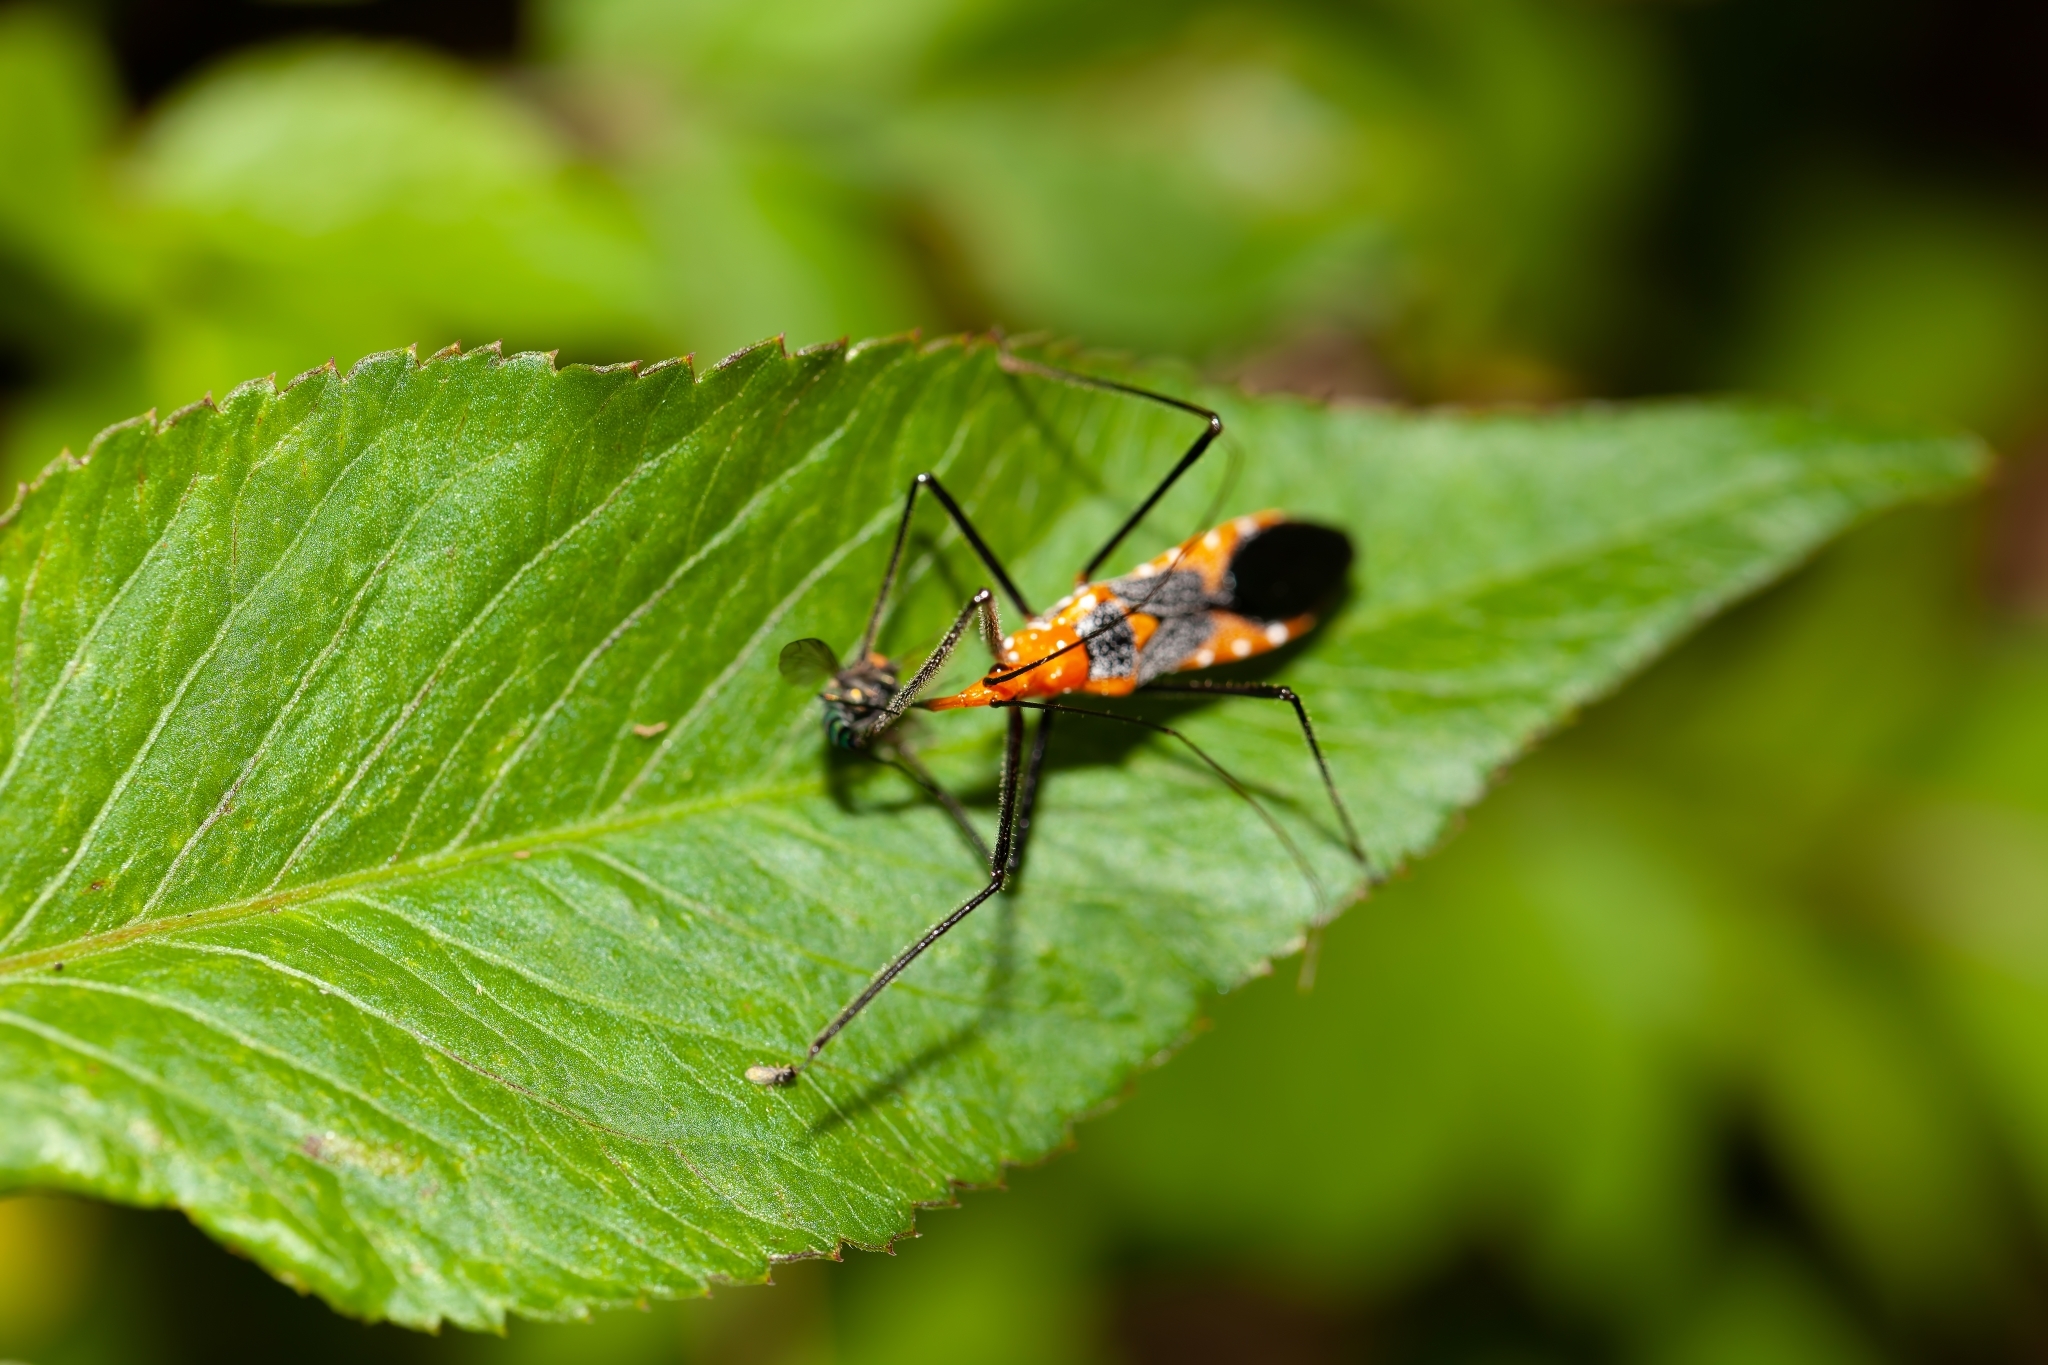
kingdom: Animalia
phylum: Arthropoda
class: Insecta
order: Hemiptera
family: Reduviidae
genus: Zelus
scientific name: Zelus longipes
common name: Milkweed assassin bug
